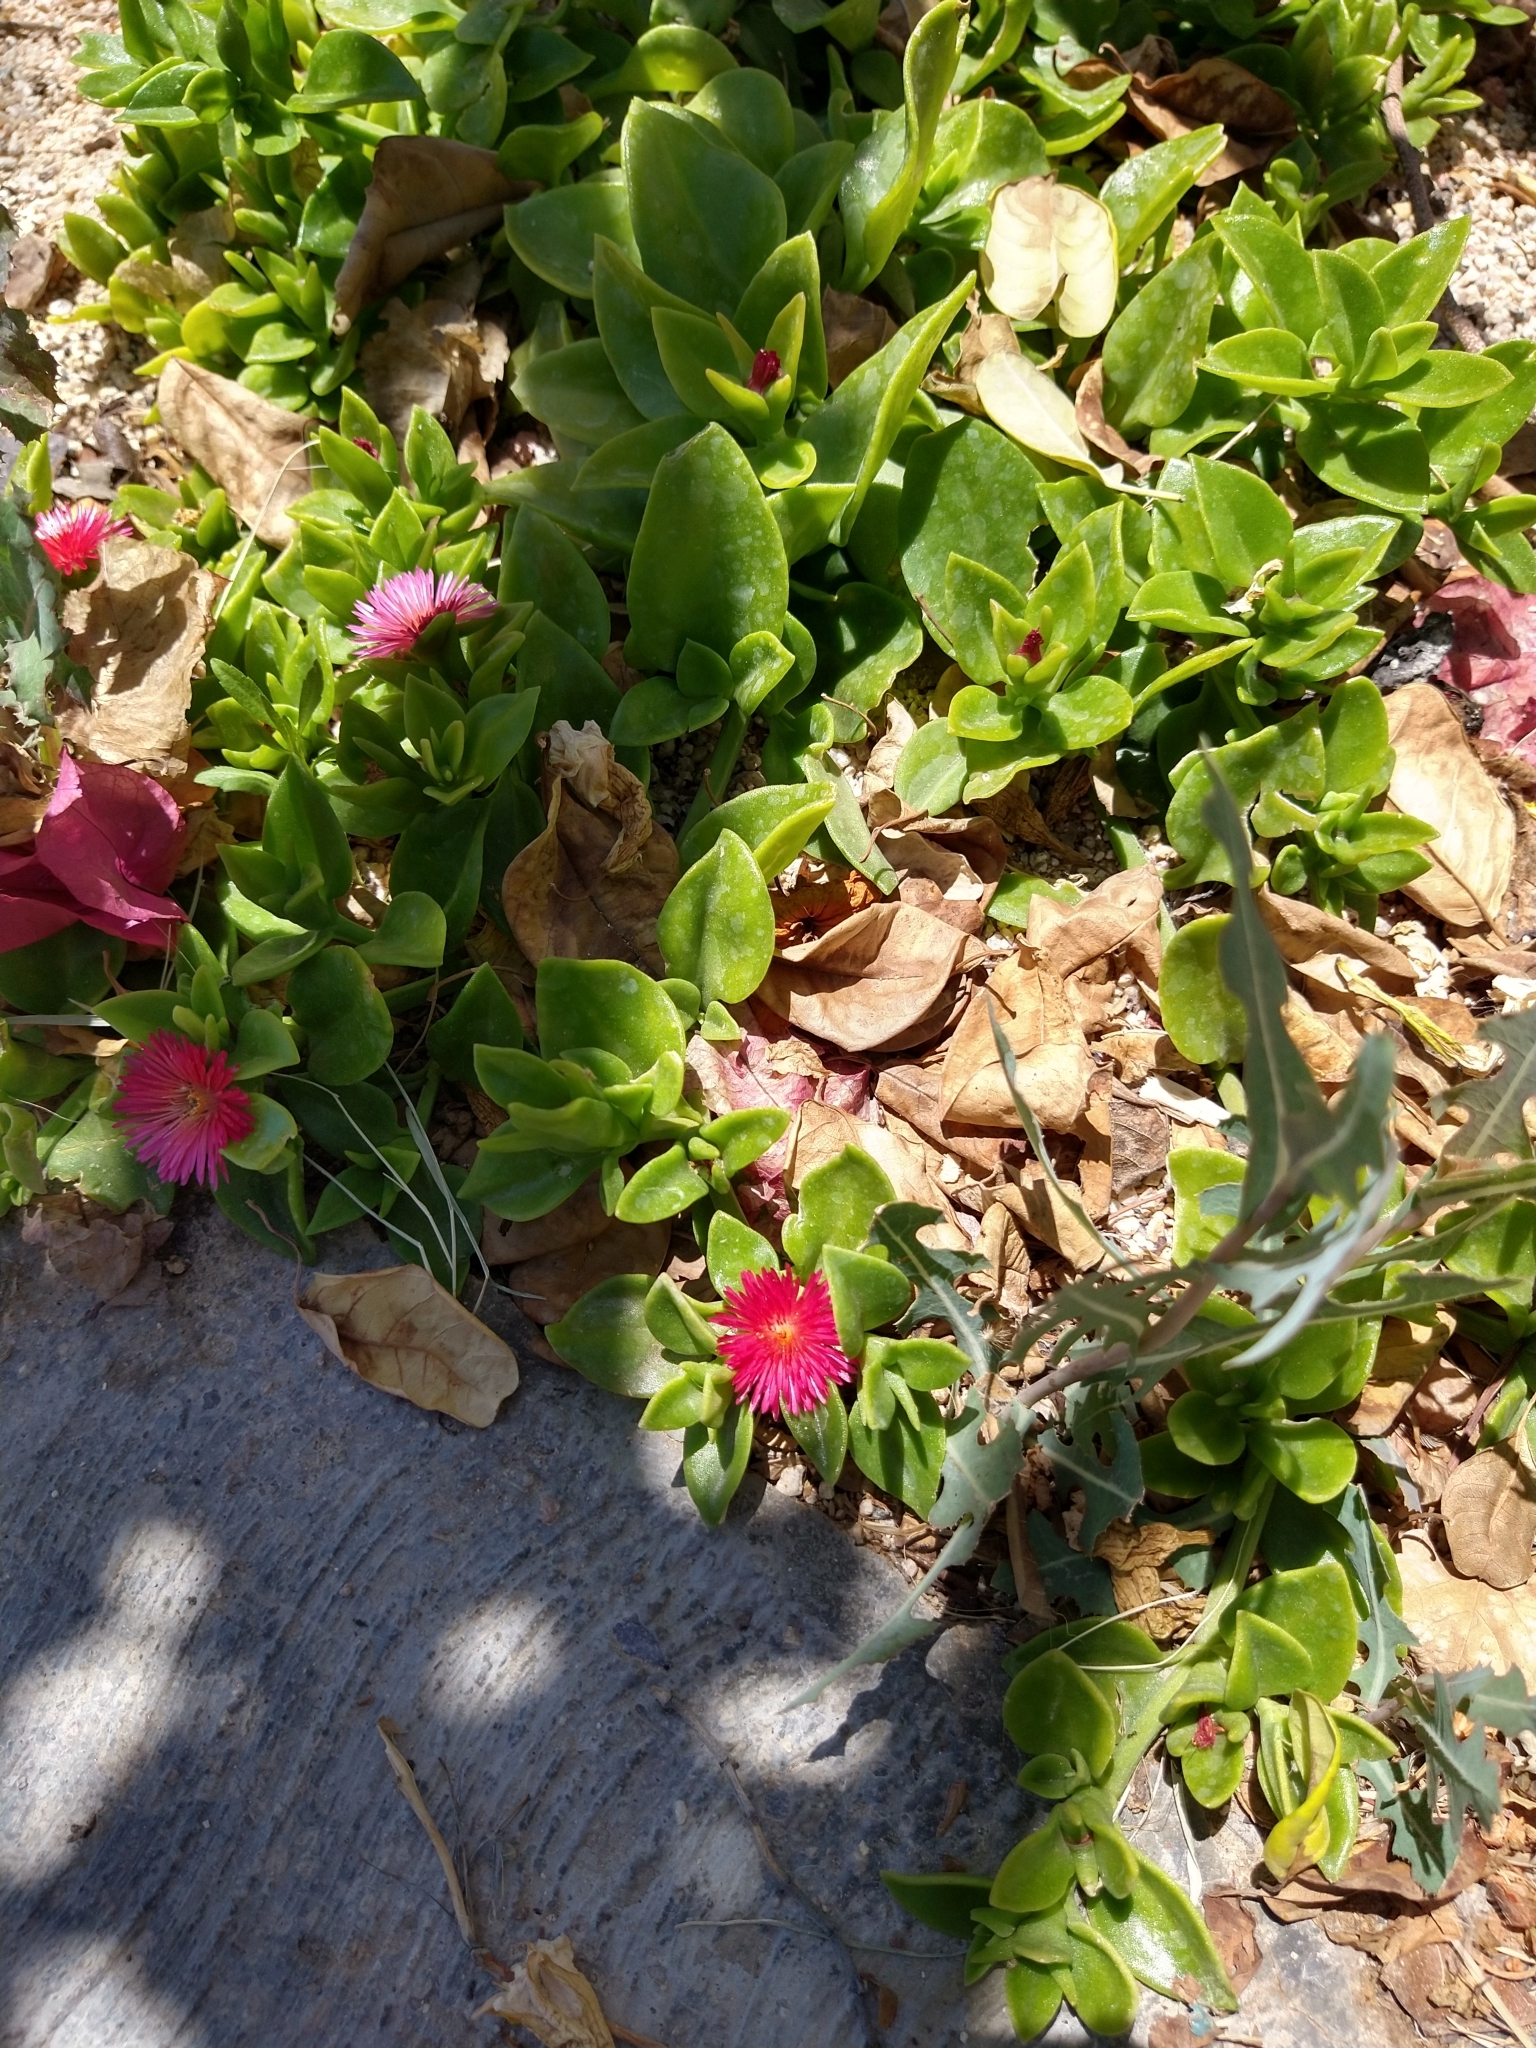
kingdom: Plantae
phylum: Tracheophyta
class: Magnoliopsida
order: Caryophyllales
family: Aizoaceae
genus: Mesembryanthemum
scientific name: Mesembryanthemum cordifolium
